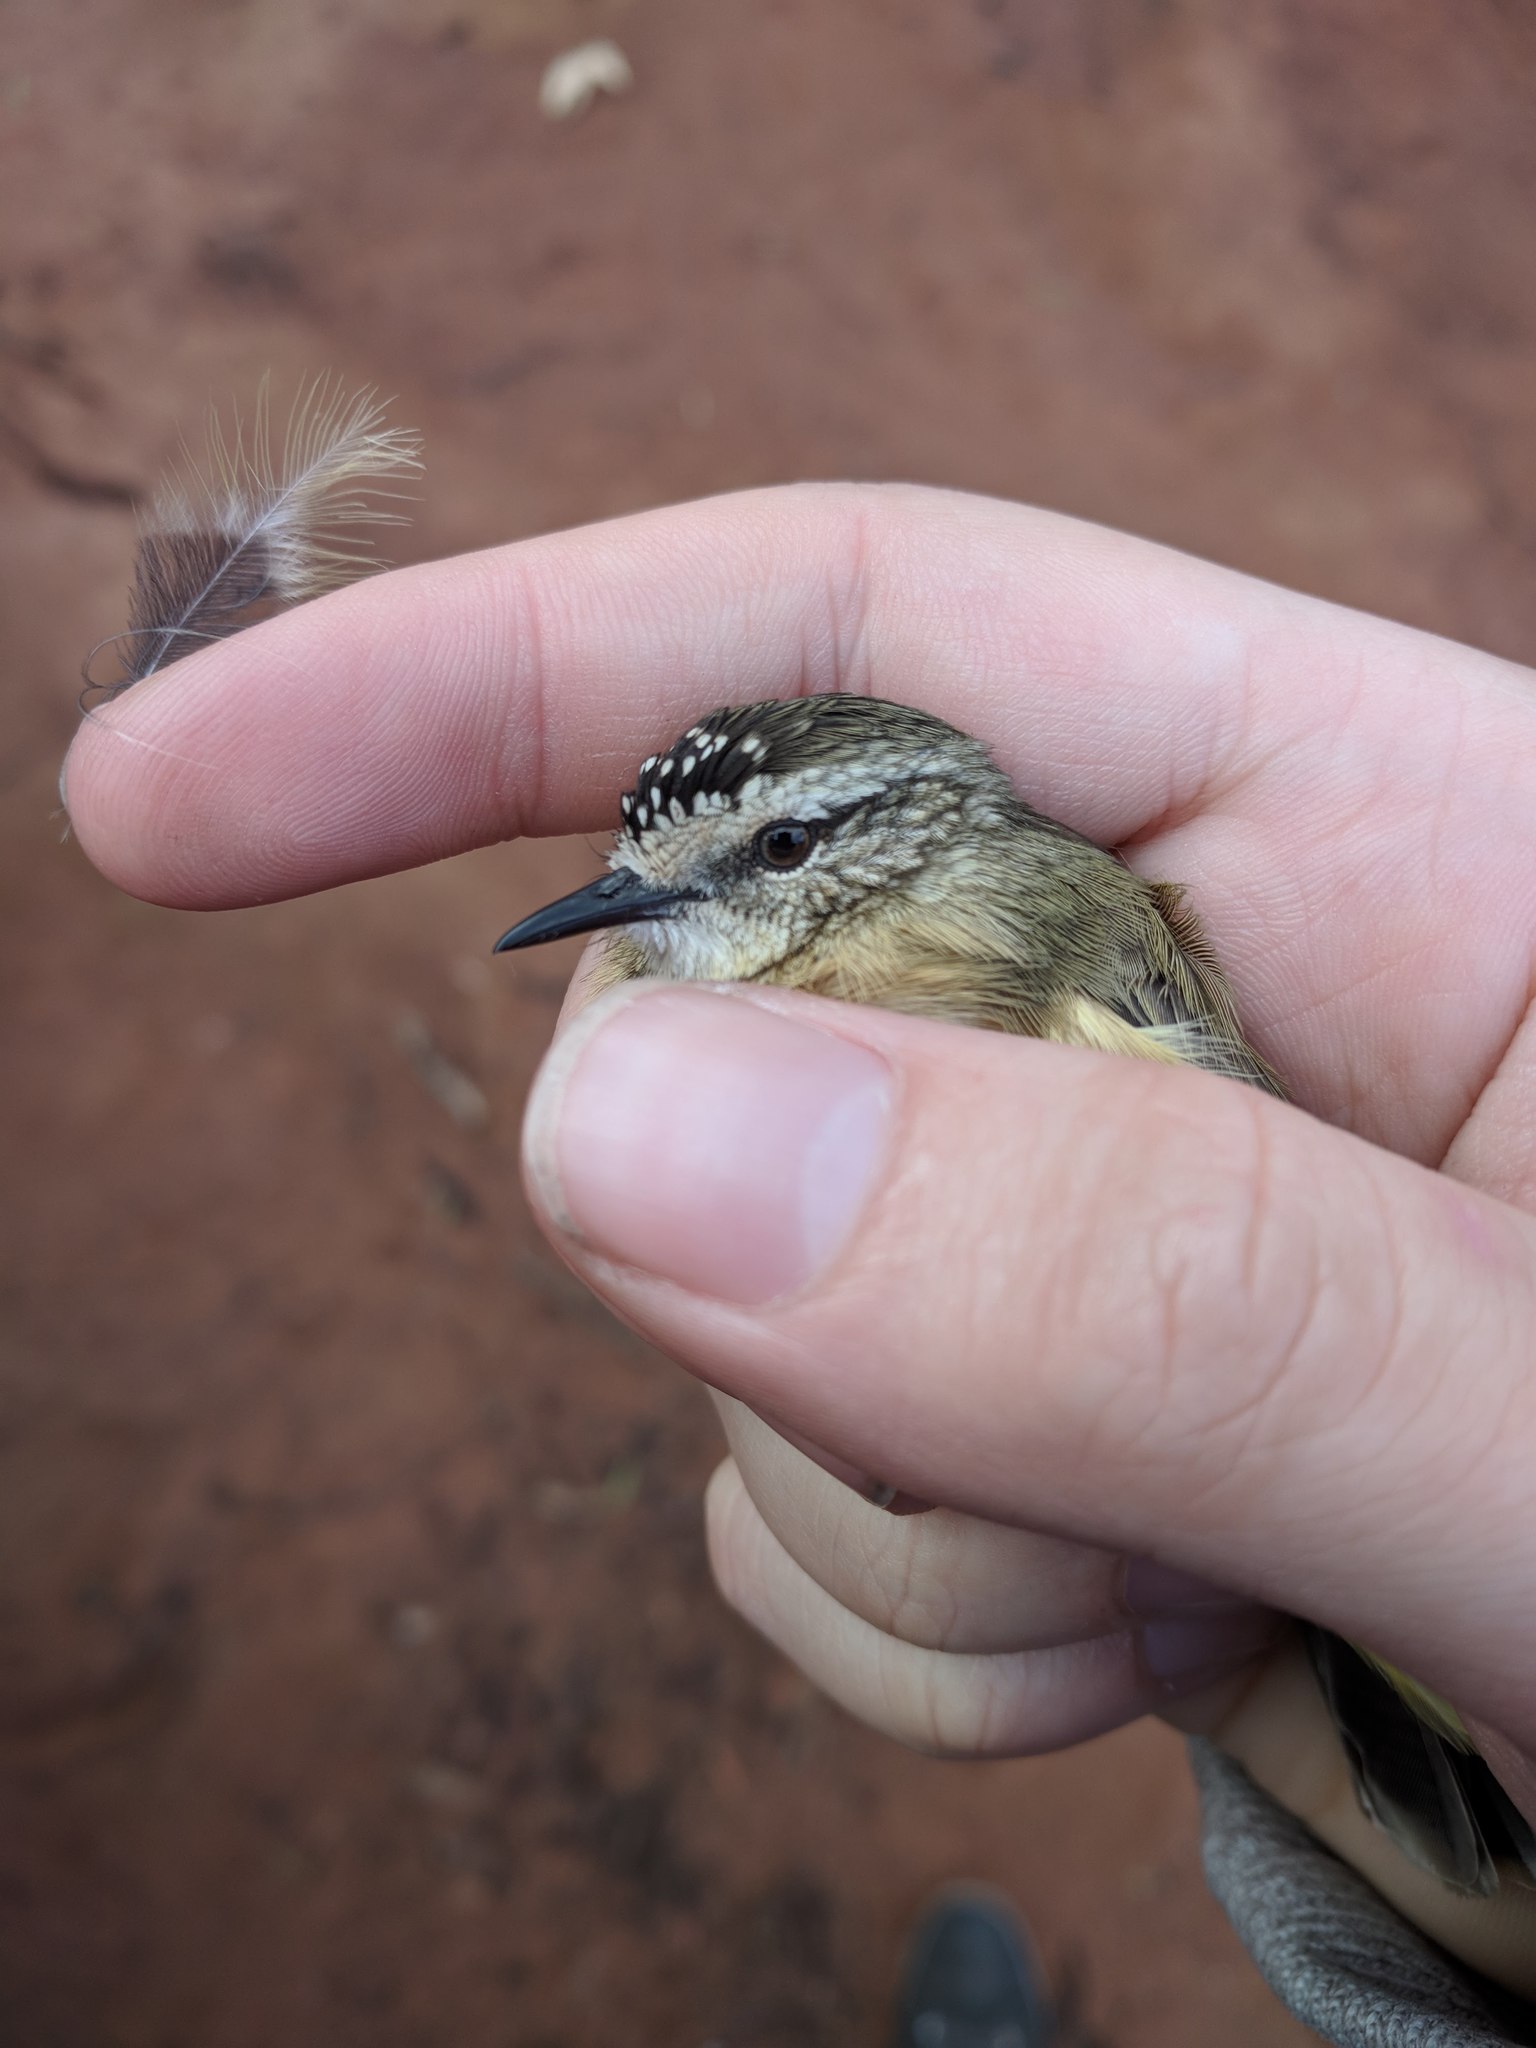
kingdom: Animalia
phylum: Chordata
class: Aves
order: Passeriformes
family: Acanthizidae
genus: Acanthiza
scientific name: Acanthiza chrysorrhoa
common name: Yellow-rumped thornbill
